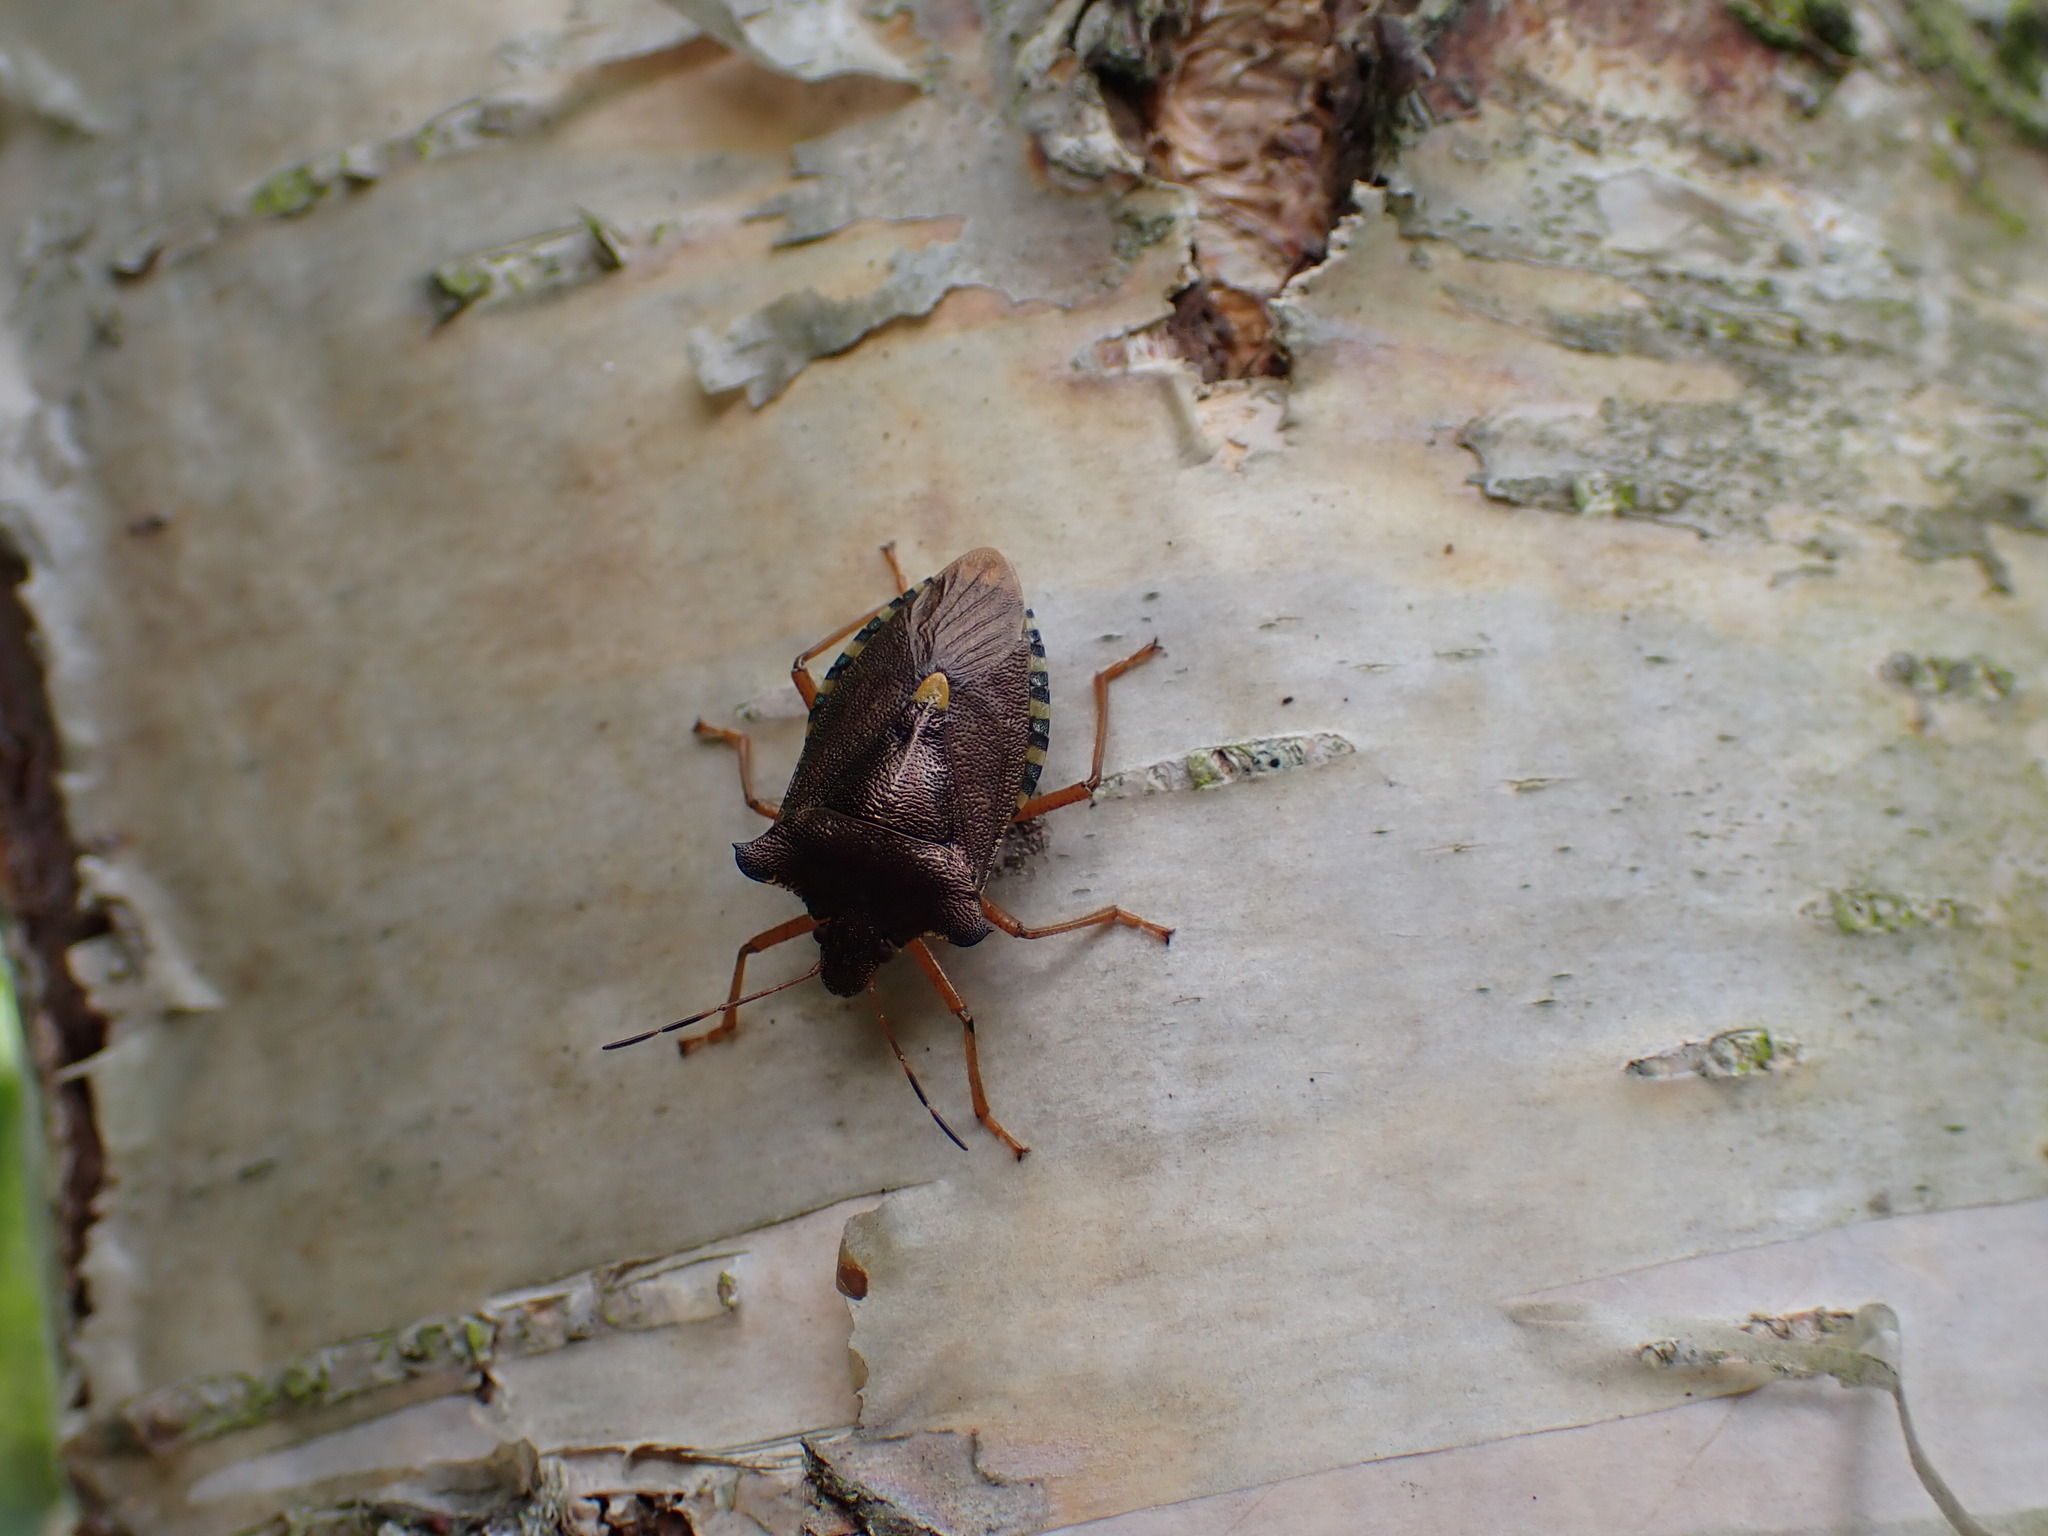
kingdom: Animalia
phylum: Arthropoda
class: Insecta
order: Hemiptera
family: Pentatomidae
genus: Pentatoma
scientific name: Pentatoma rufipes
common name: Forest bug
